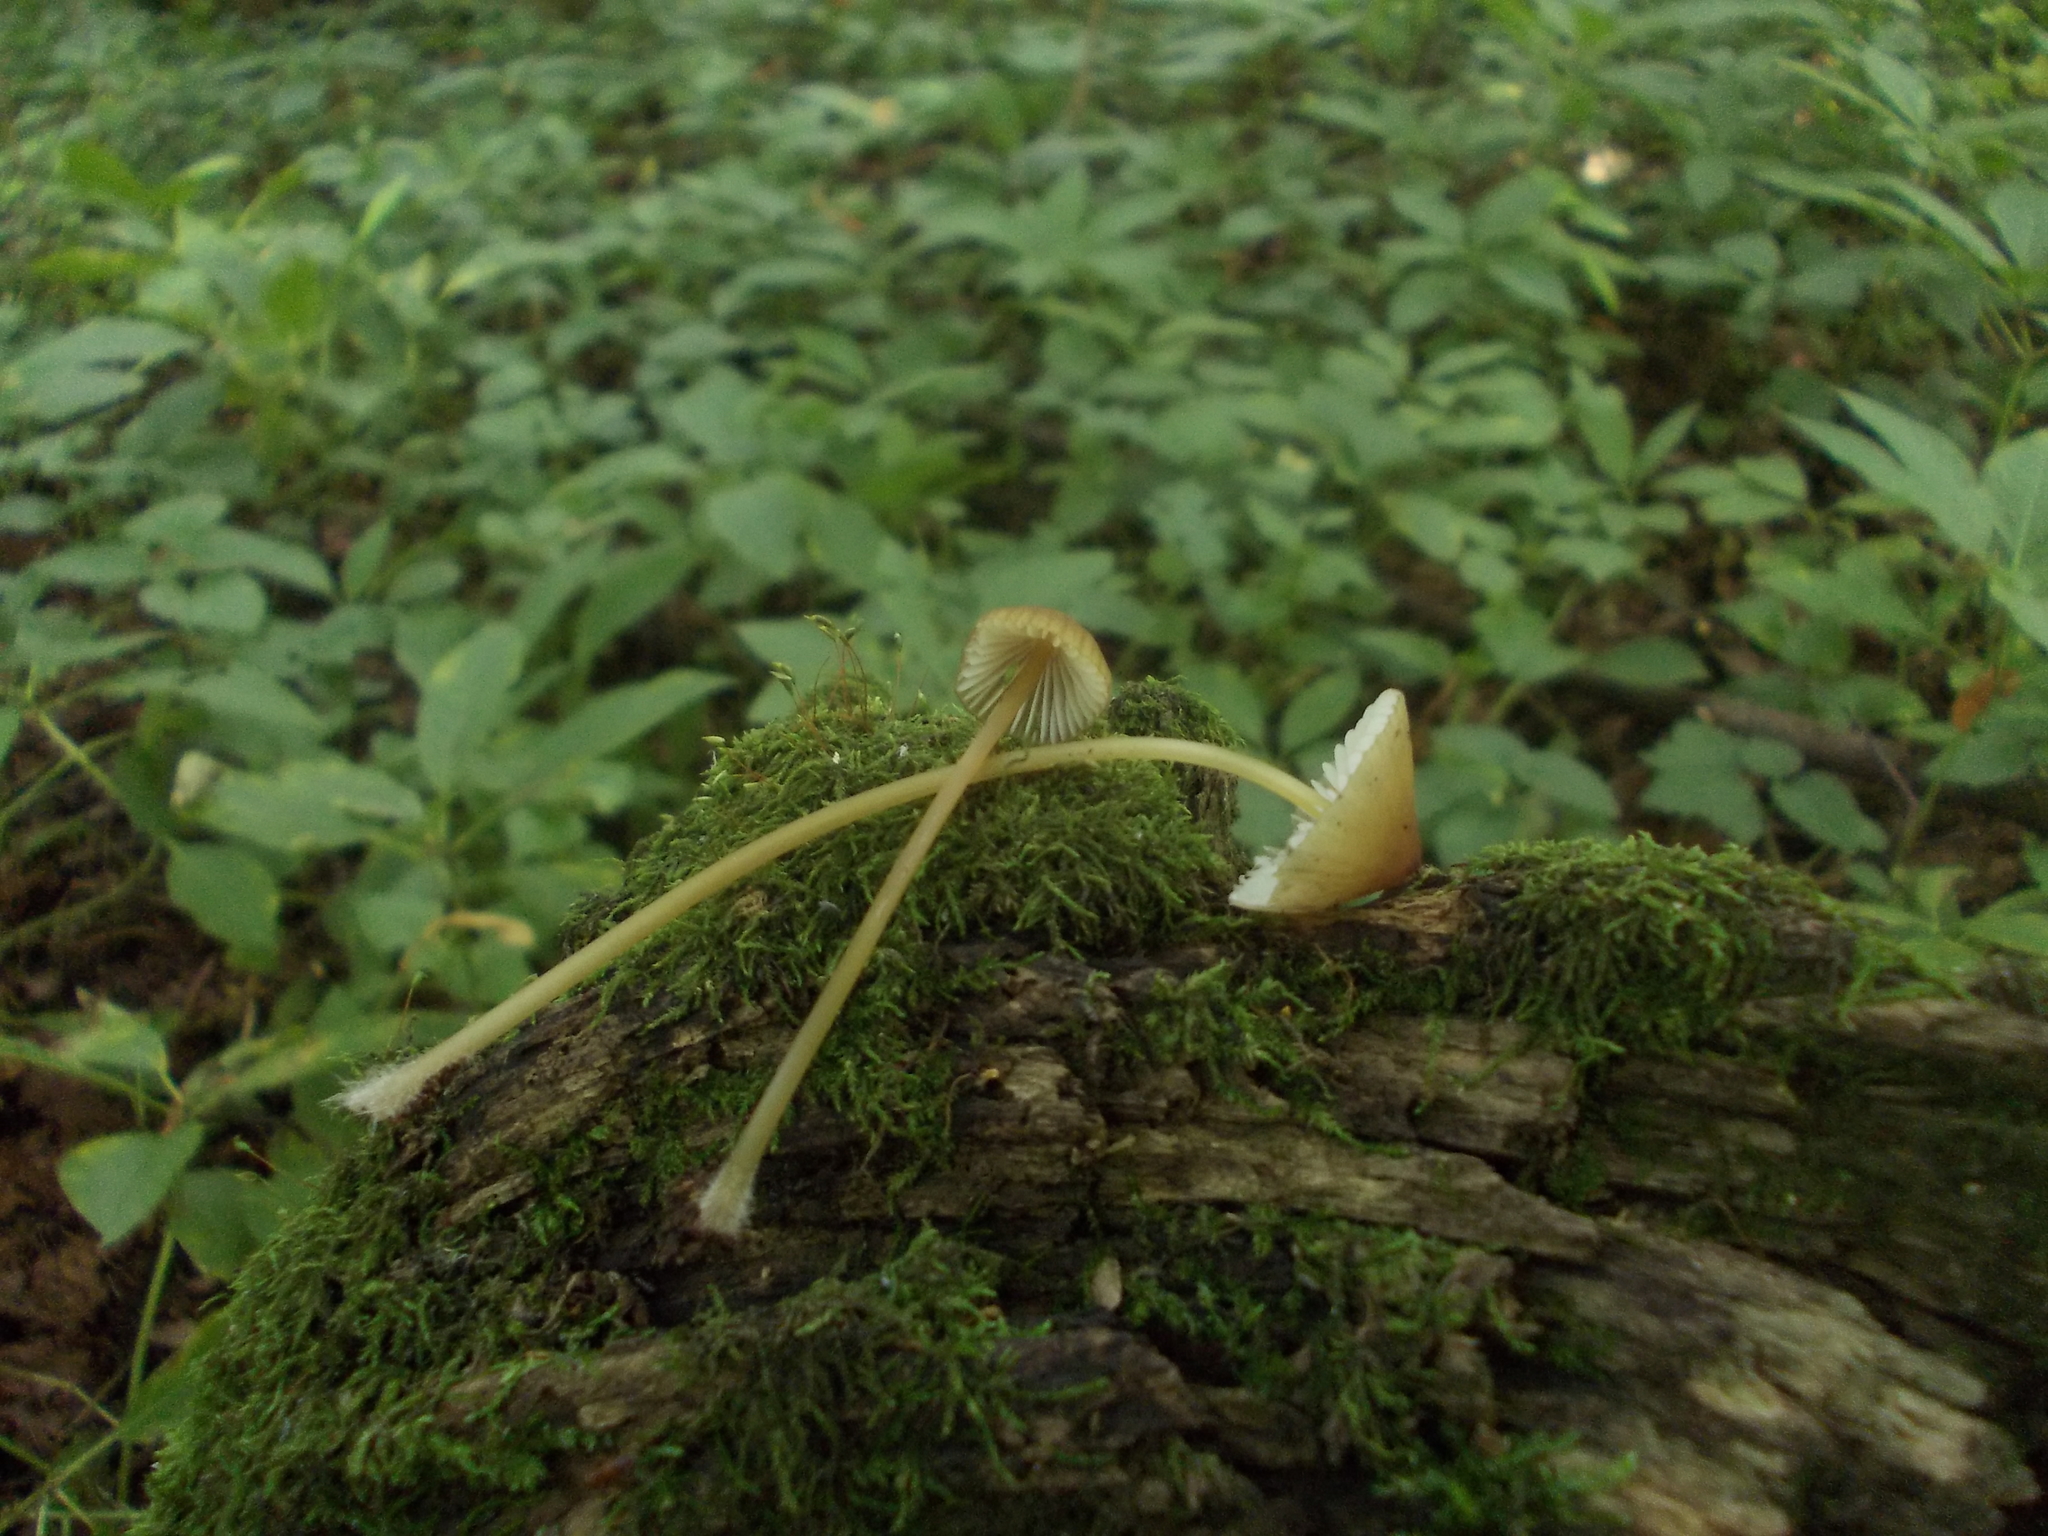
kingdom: Fungi
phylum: Basidiomycota
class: Agaricomycetes
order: Agaricales
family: Mycenaceae
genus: Mycena
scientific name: Mycena viridimarginata
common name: Olive edge bonnet
